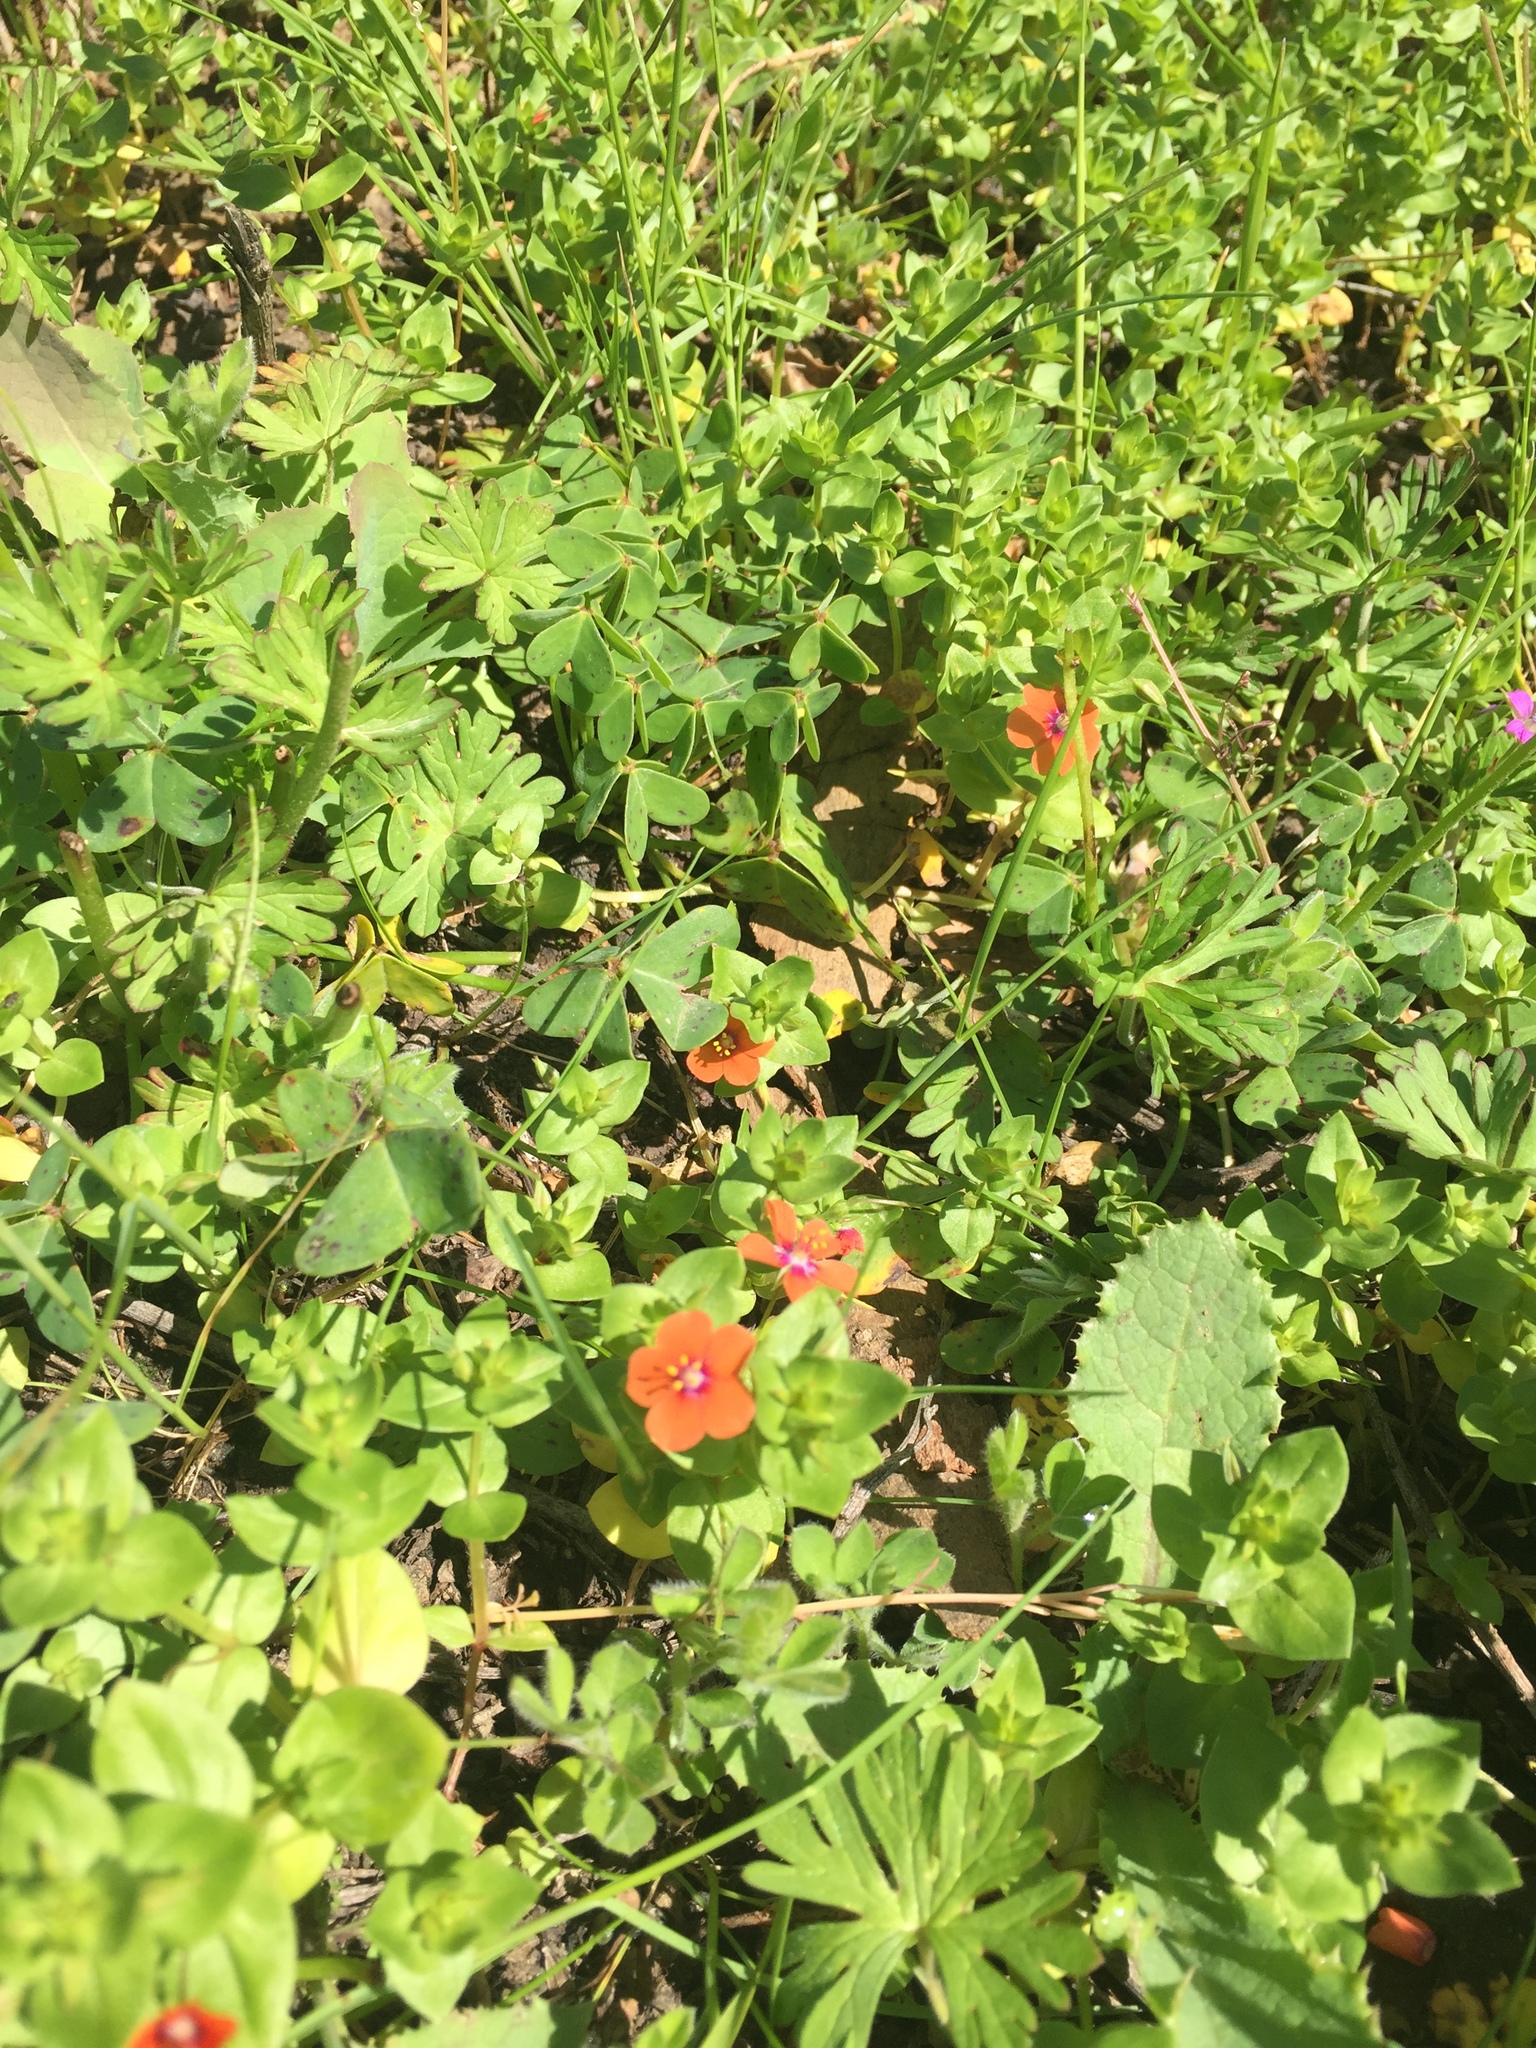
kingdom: Plantae
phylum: Tracheophyta
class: Magnoliopsida
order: Ericales
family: Primulaceae
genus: Lysimachia
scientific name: Lysimachia arvensis
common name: Scarlet pimpernel
